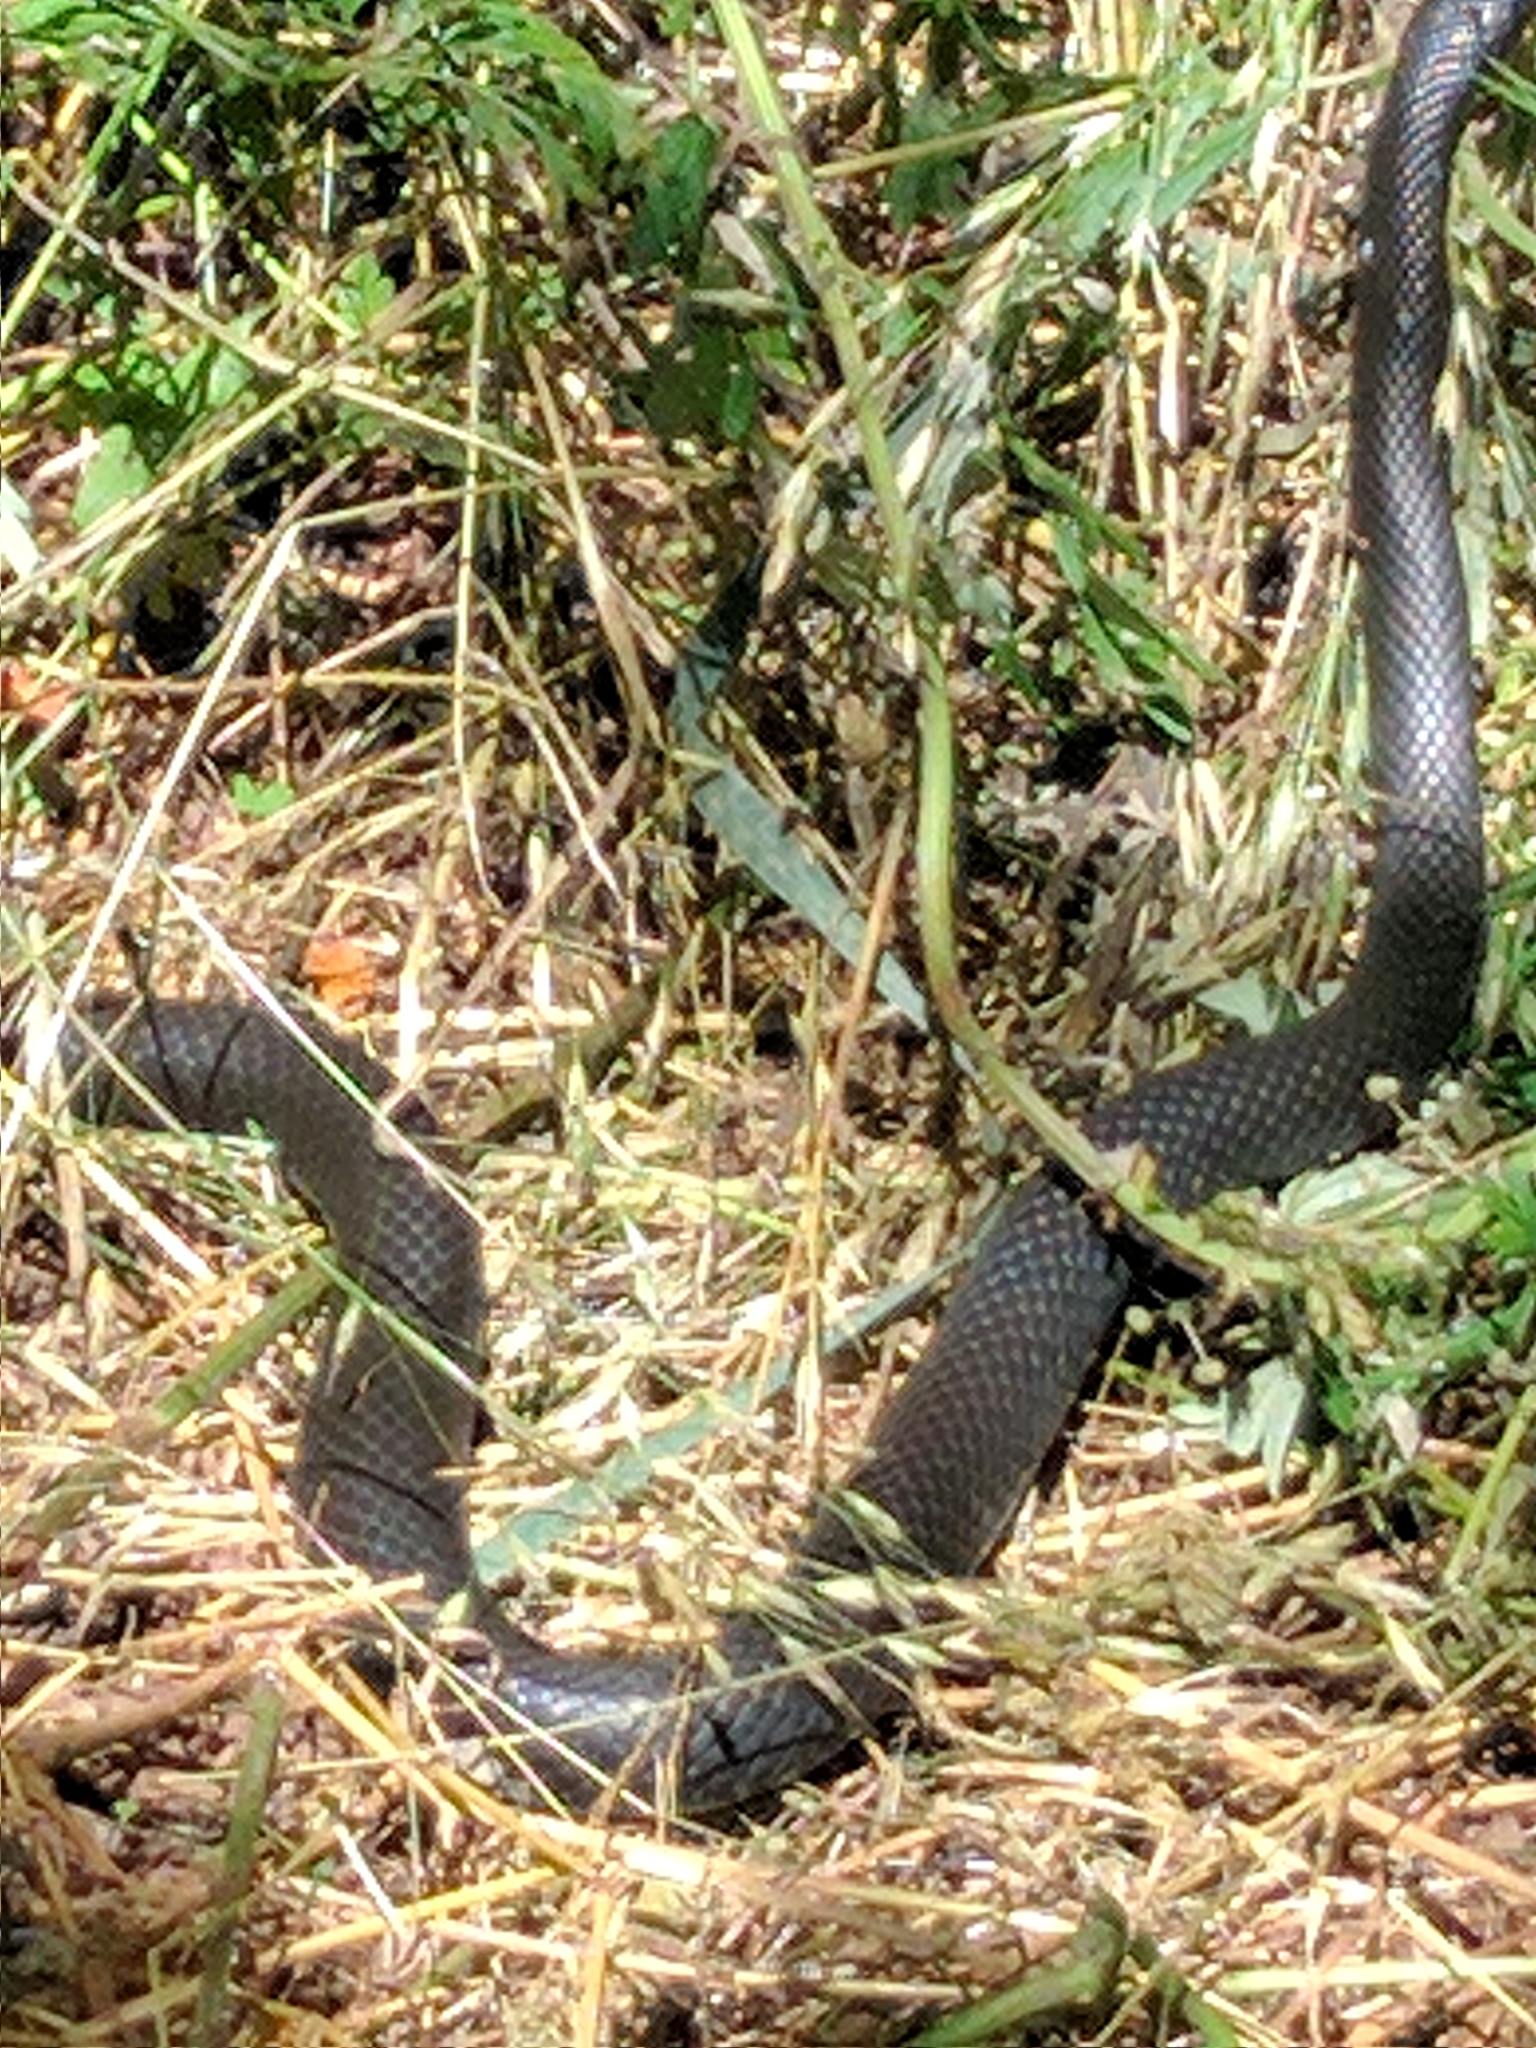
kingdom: Animalia
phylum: Chordata
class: Squamata
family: Colubridae
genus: Coluber
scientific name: Coluber constrictor
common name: Eastern racer
